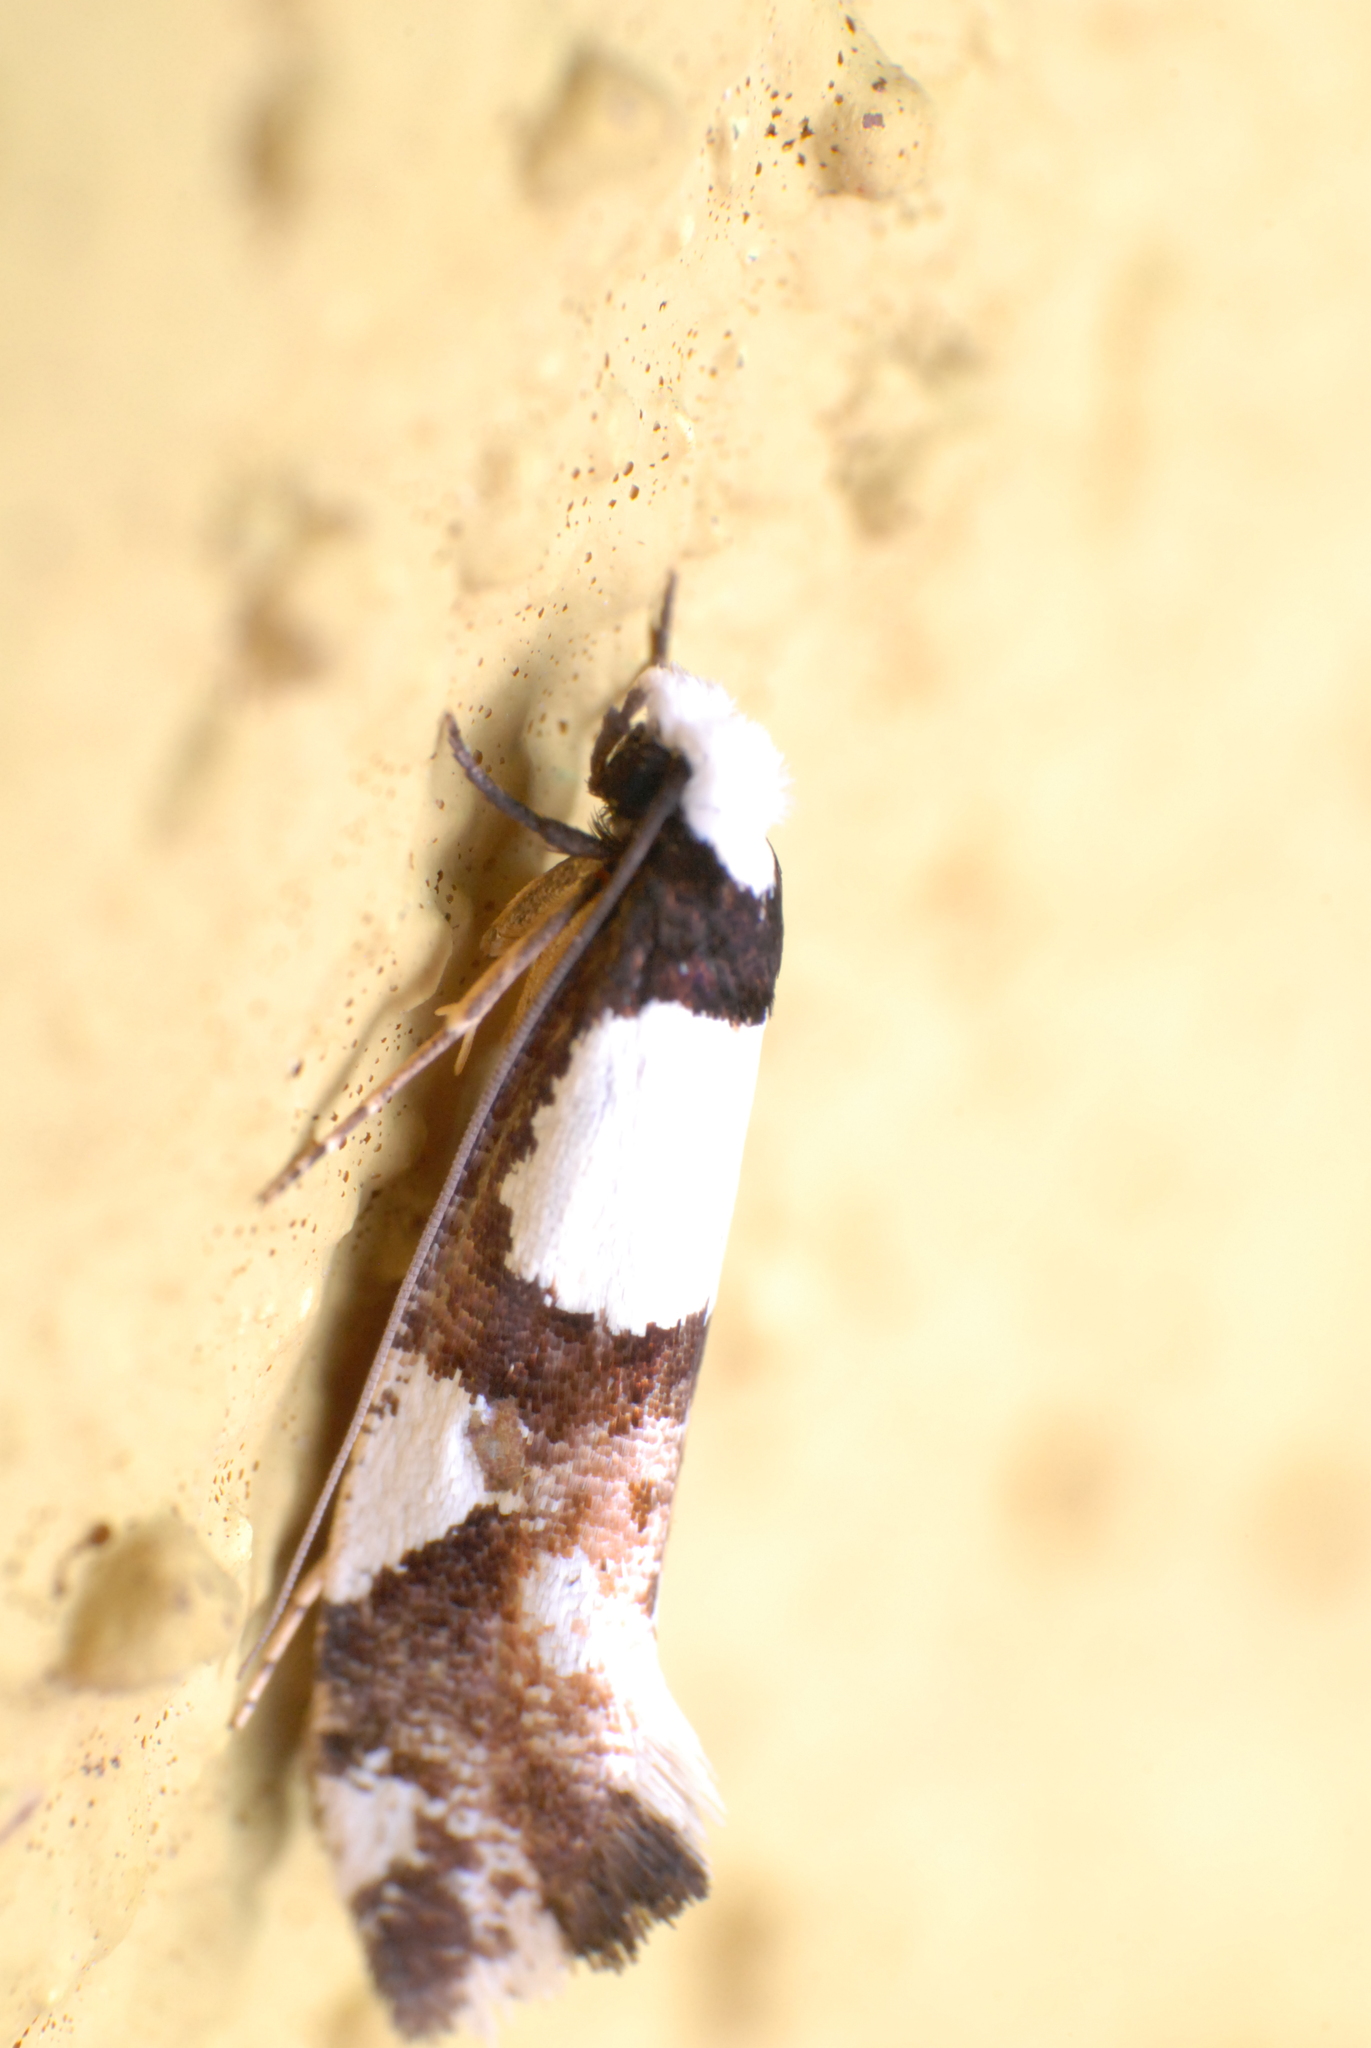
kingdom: Animalia
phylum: Arthropoda
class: Insecta
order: Lepidoptera
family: Tineidae
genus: Monopis
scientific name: Monopis icterogastra
